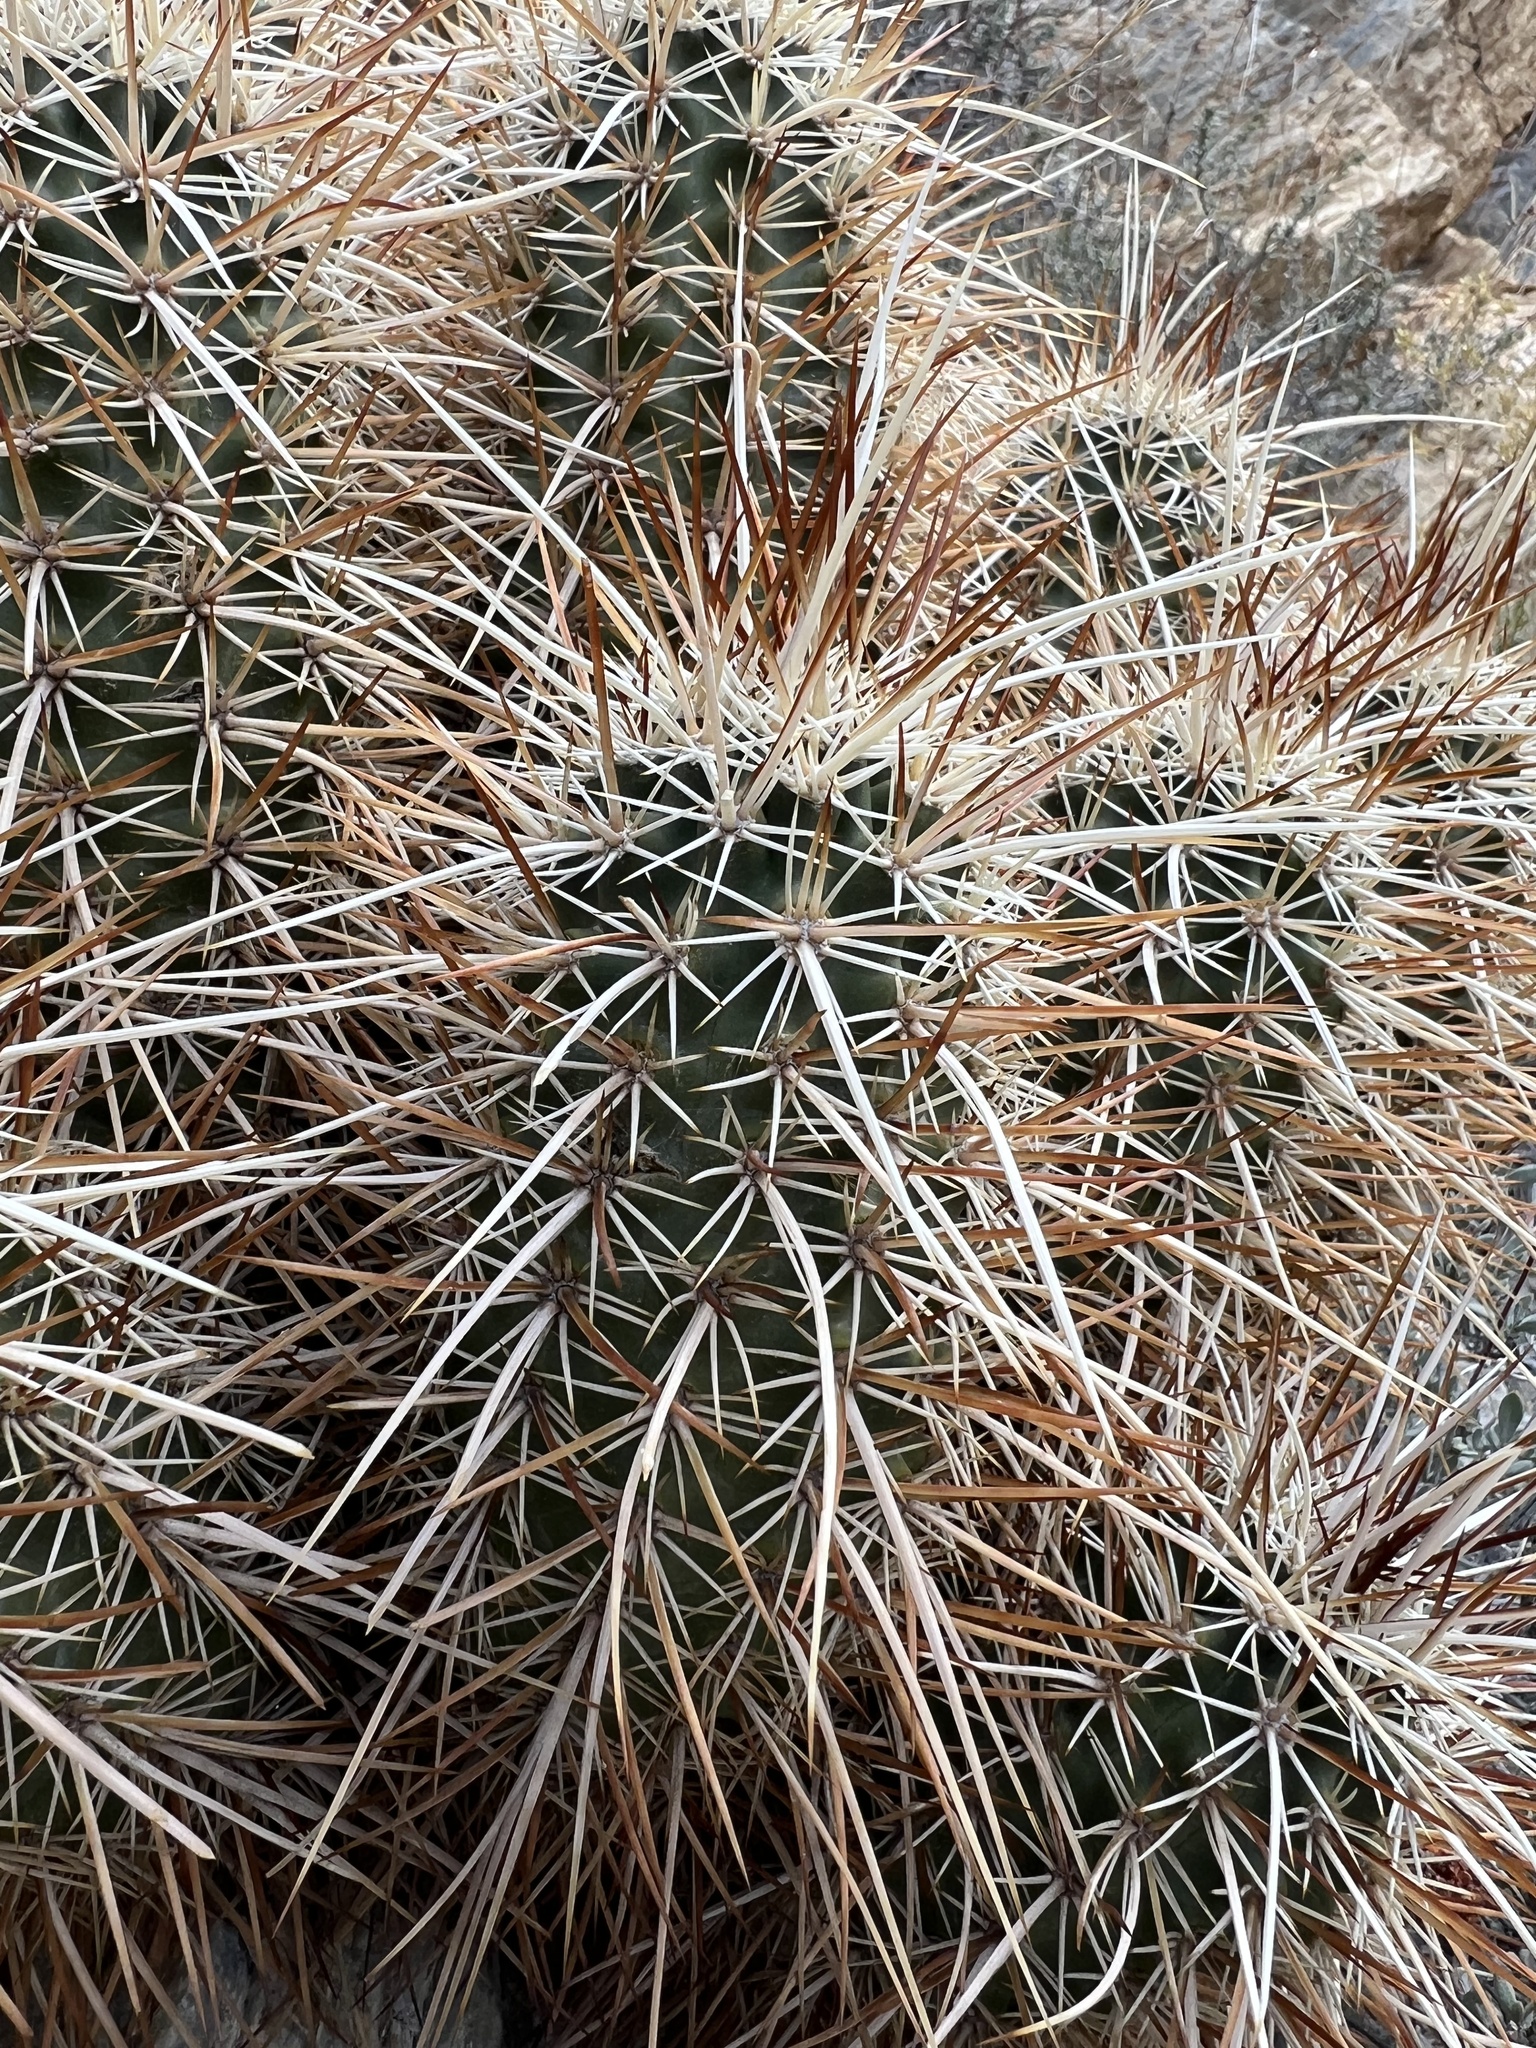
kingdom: Plantae
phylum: Tracheophyta
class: Magnoliopsida
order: Caryophyllales
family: Cactaceae
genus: Echinocereus
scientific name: Echinocereus engelmannii
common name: Engelmann's hedgehog cactus
